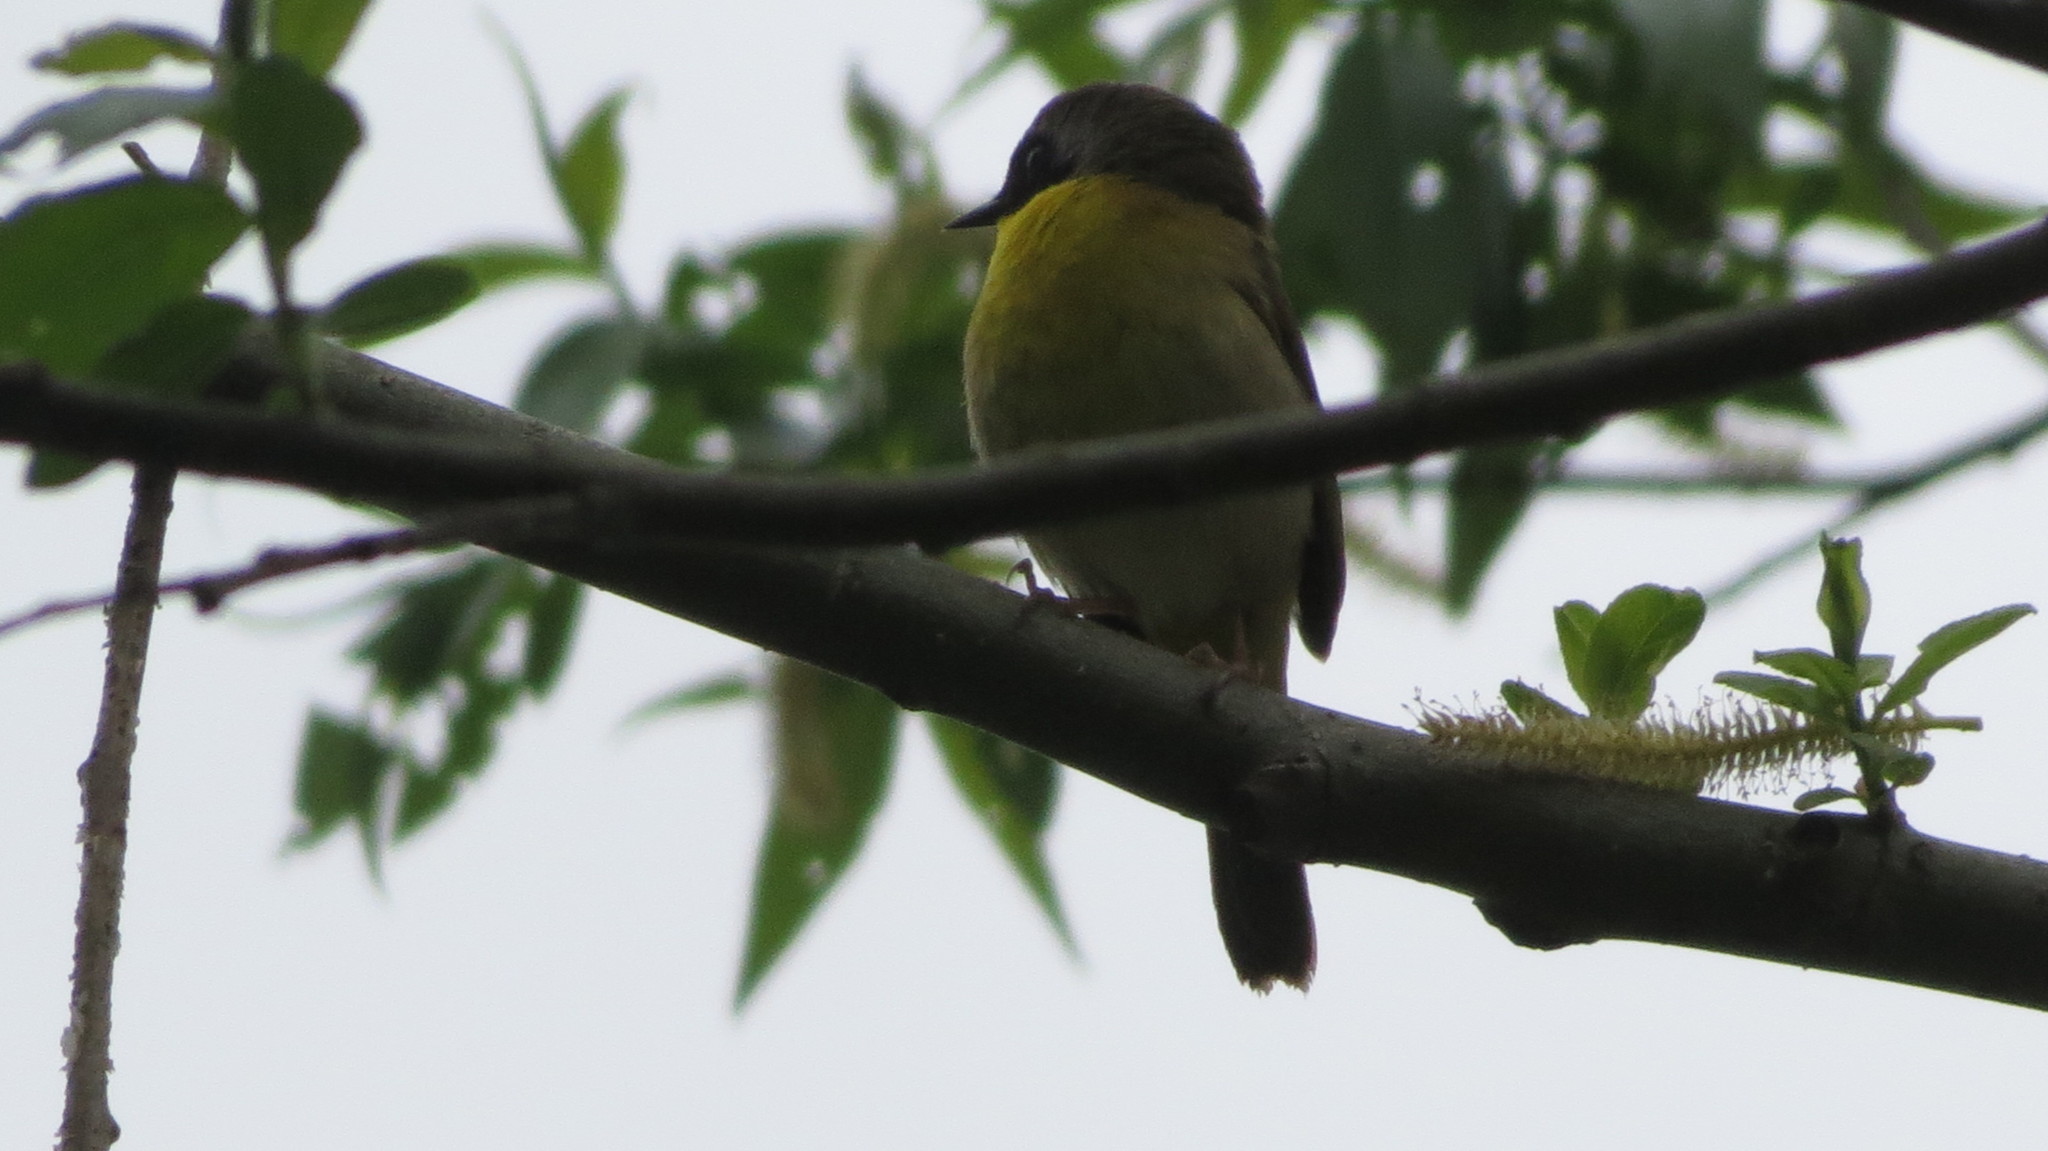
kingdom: Animalia
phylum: Chordata
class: Aves
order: Passeriformes
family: Parulidae
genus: Geothlypis
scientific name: Geothlypis trichas
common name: Common yellowthroat
